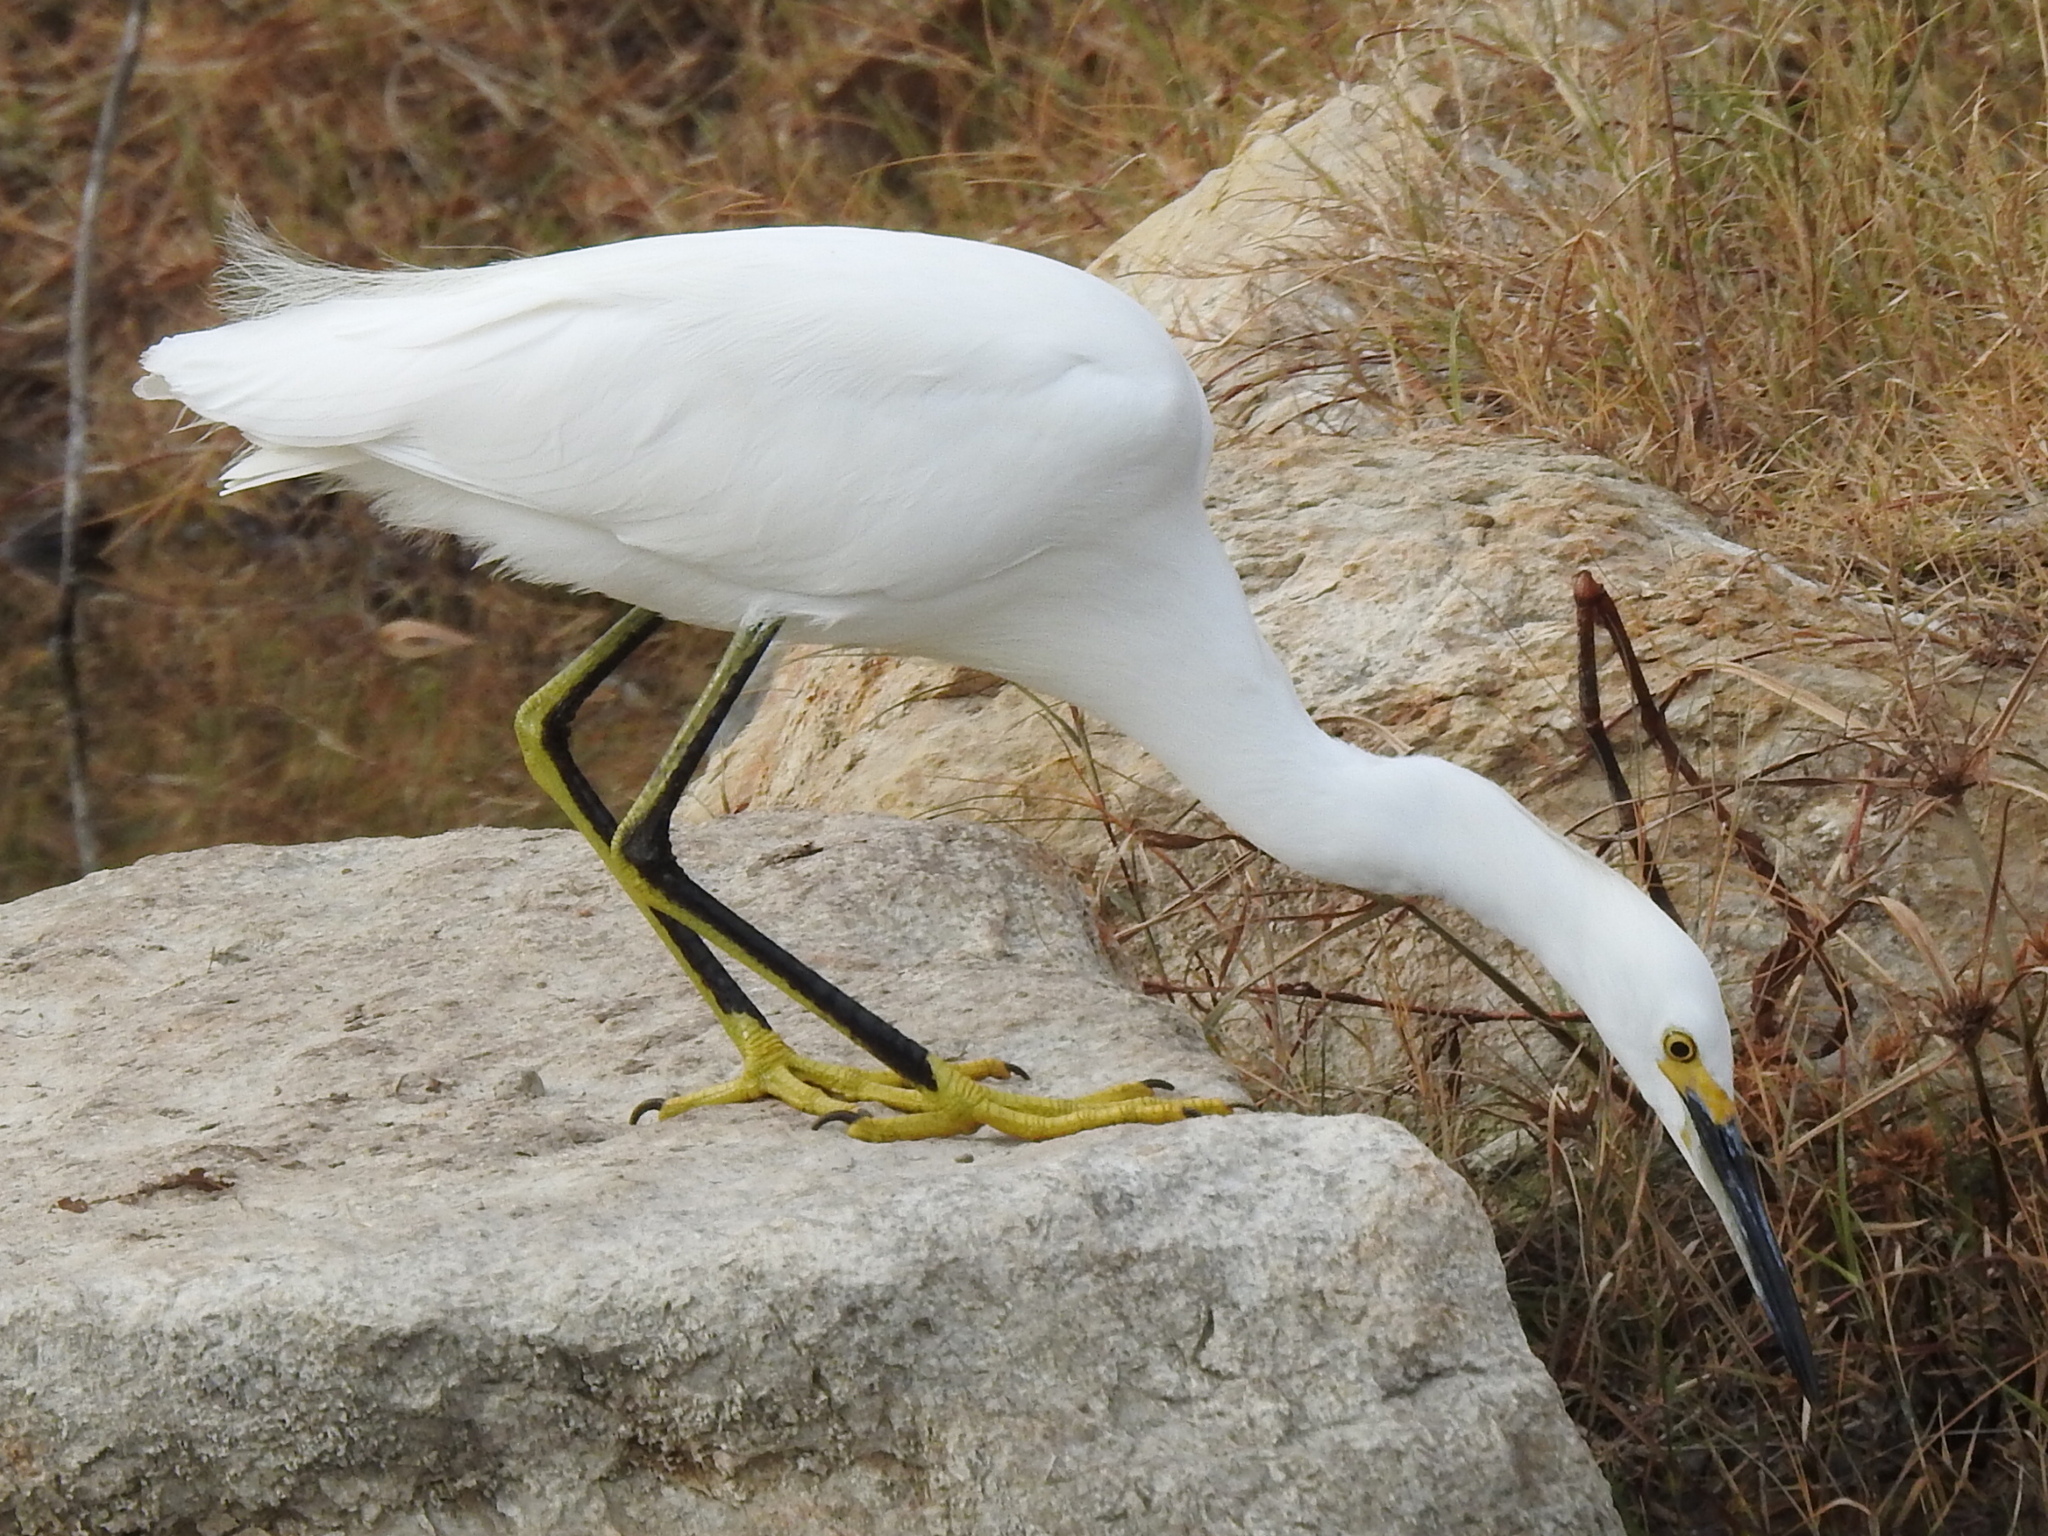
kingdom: Animalia
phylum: Chordata
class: Aves
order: Pelecaniformes
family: Ardeidae
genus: Egretta
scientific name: Egretta thula
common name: Snowy egret
